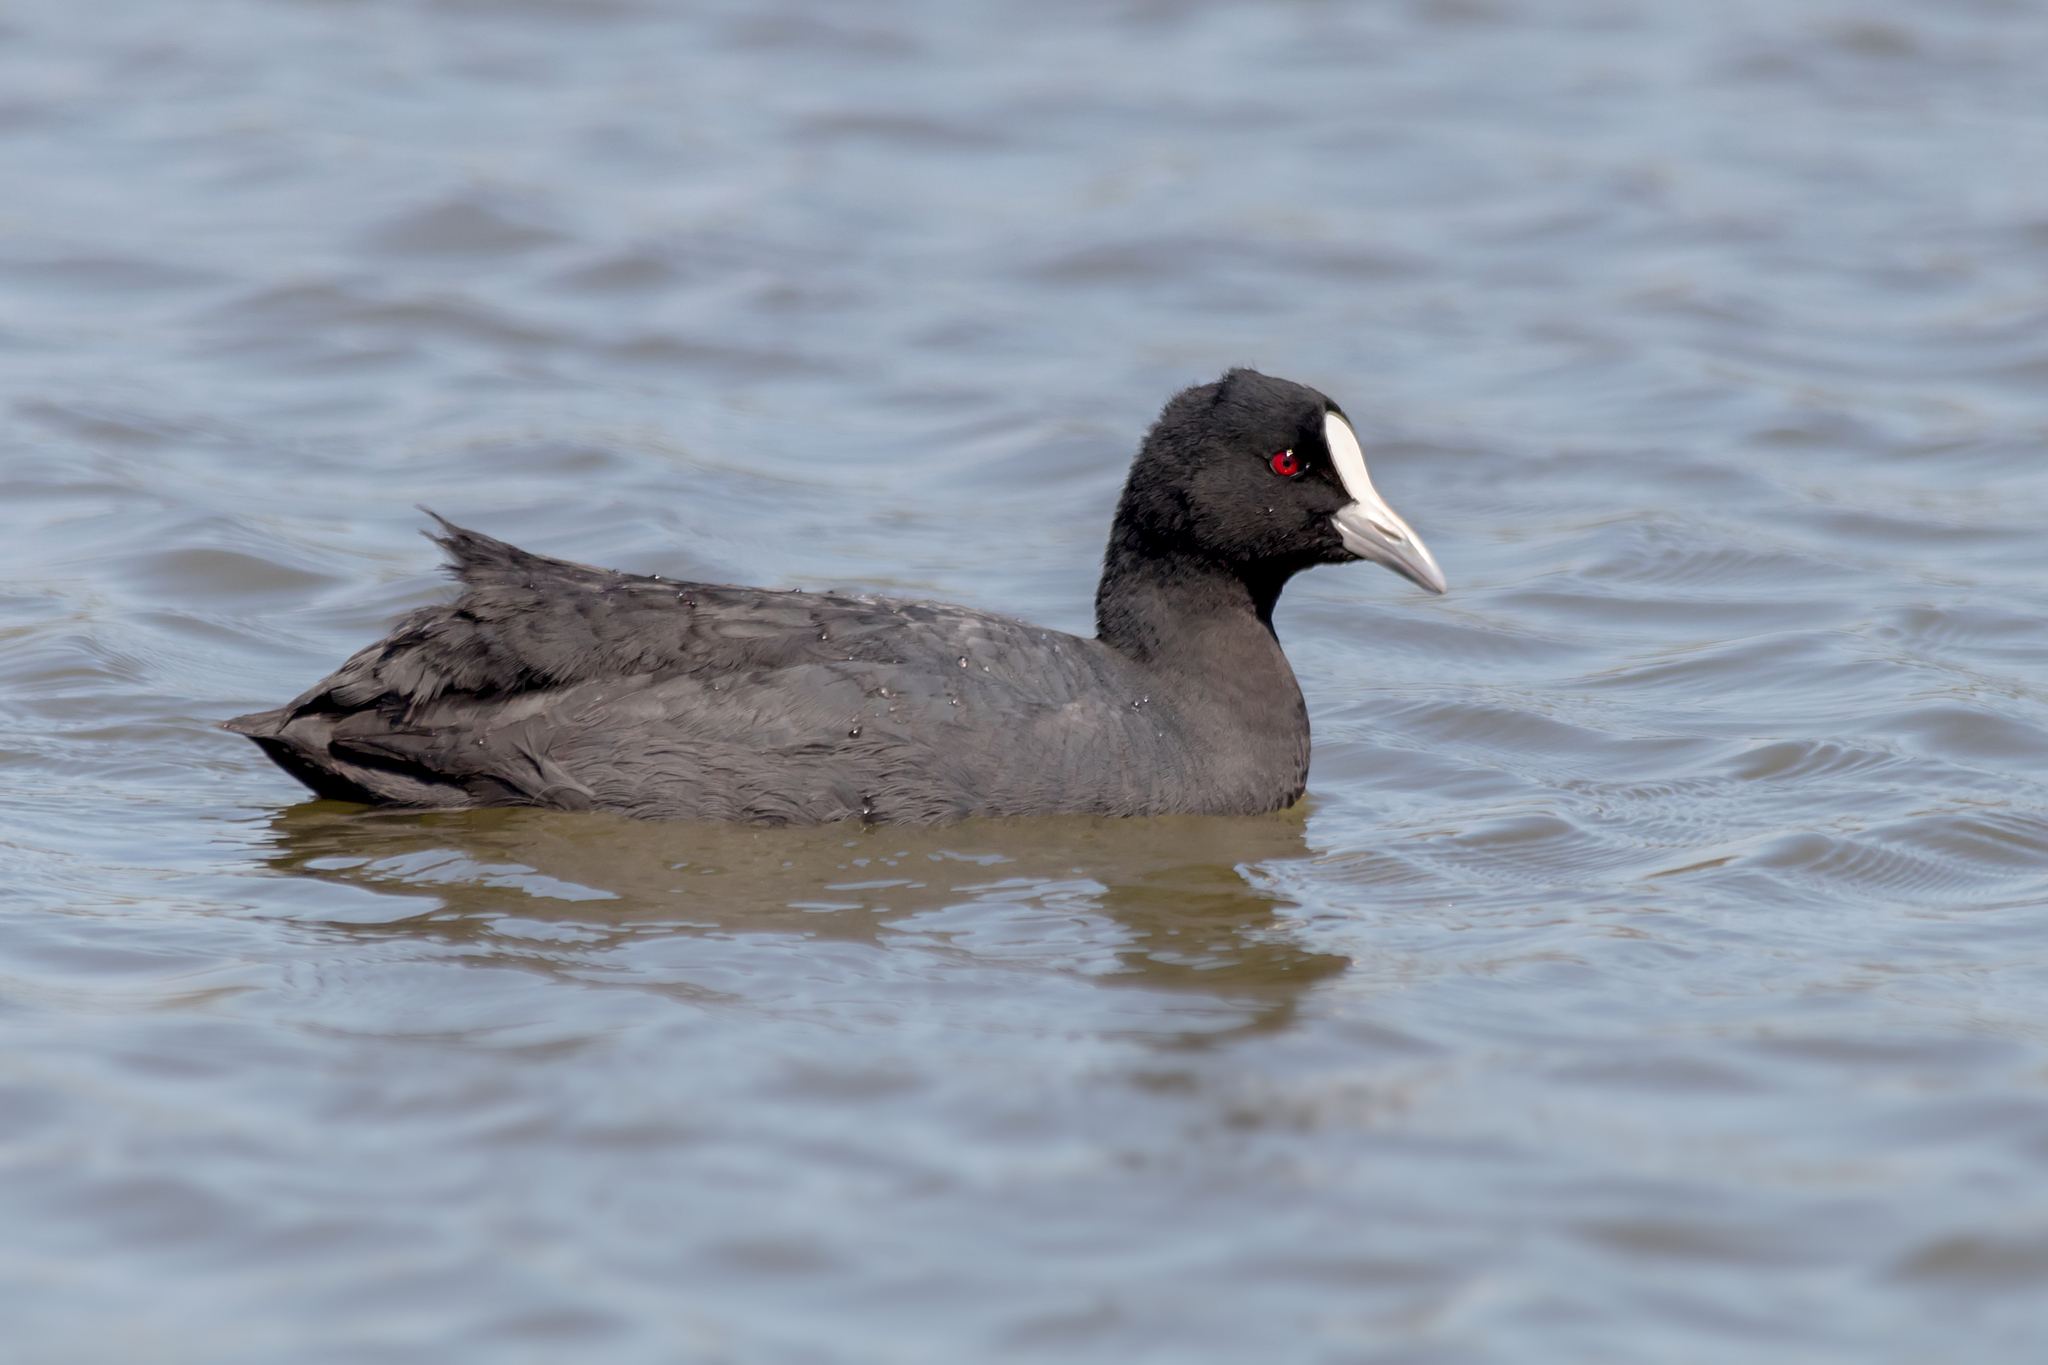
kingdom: Animalia
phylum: Chordata
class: Aves
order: Gruiformes
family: Rallidae
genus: Fulica
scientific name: Fulica atra
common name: Eurasian coot
